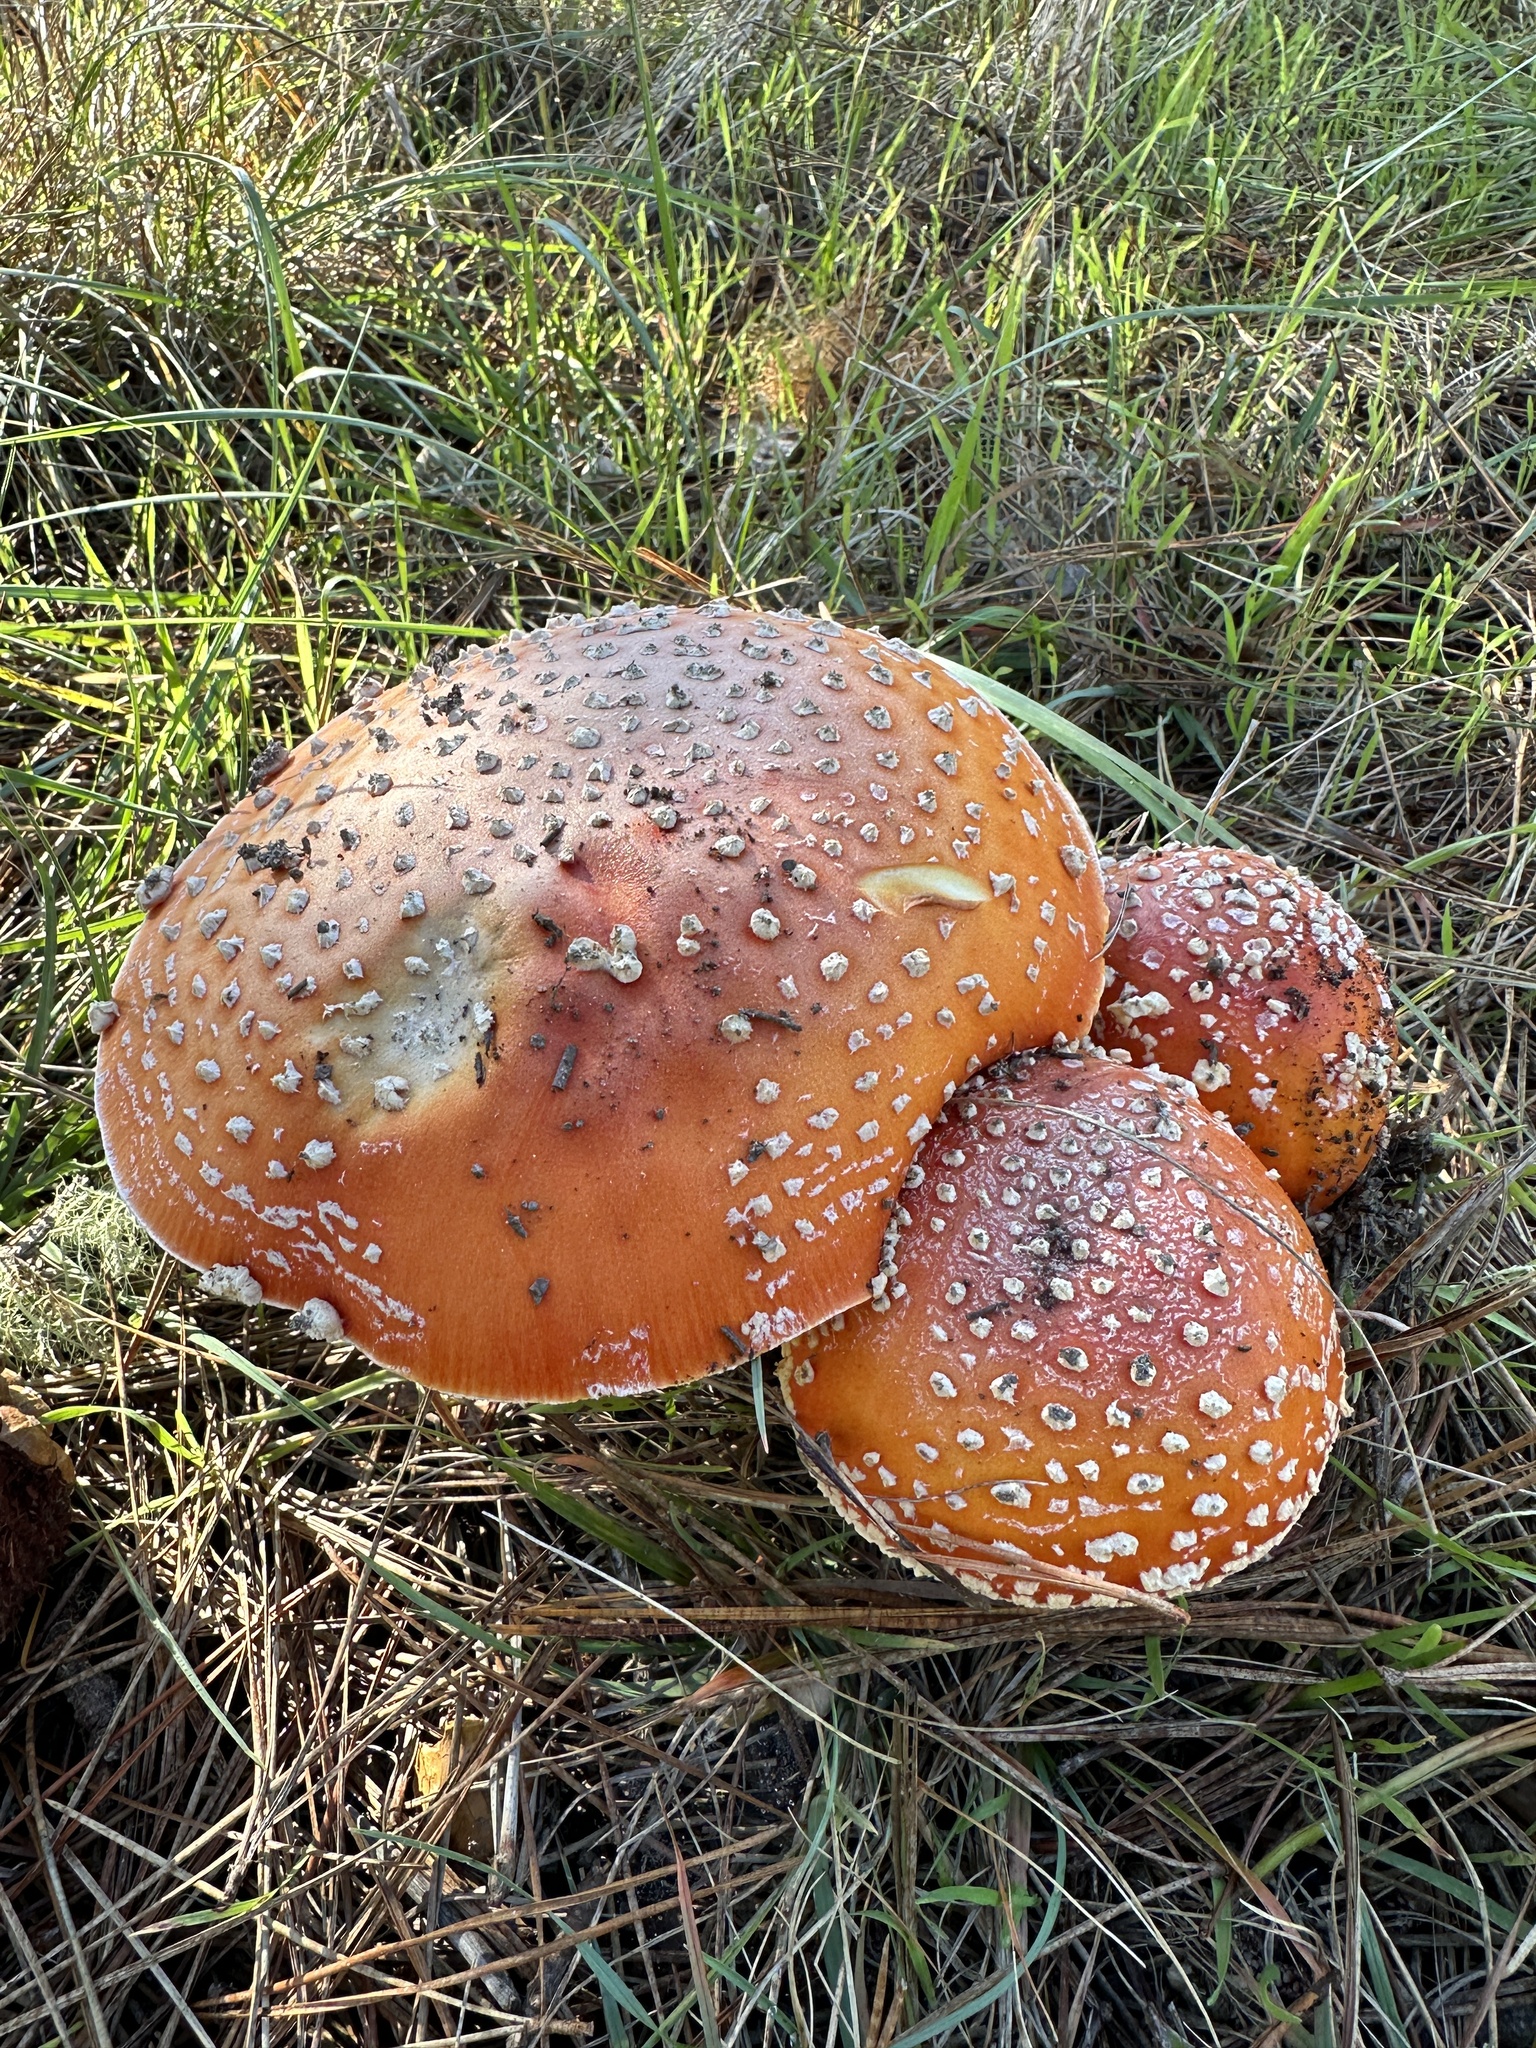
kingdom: Fungi
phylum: Basidiomycota
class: Agaricomycetes
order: Agaricales
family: Amanitaceae
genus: Amanita
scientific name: Amanita muscaria
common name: Fly agaric
